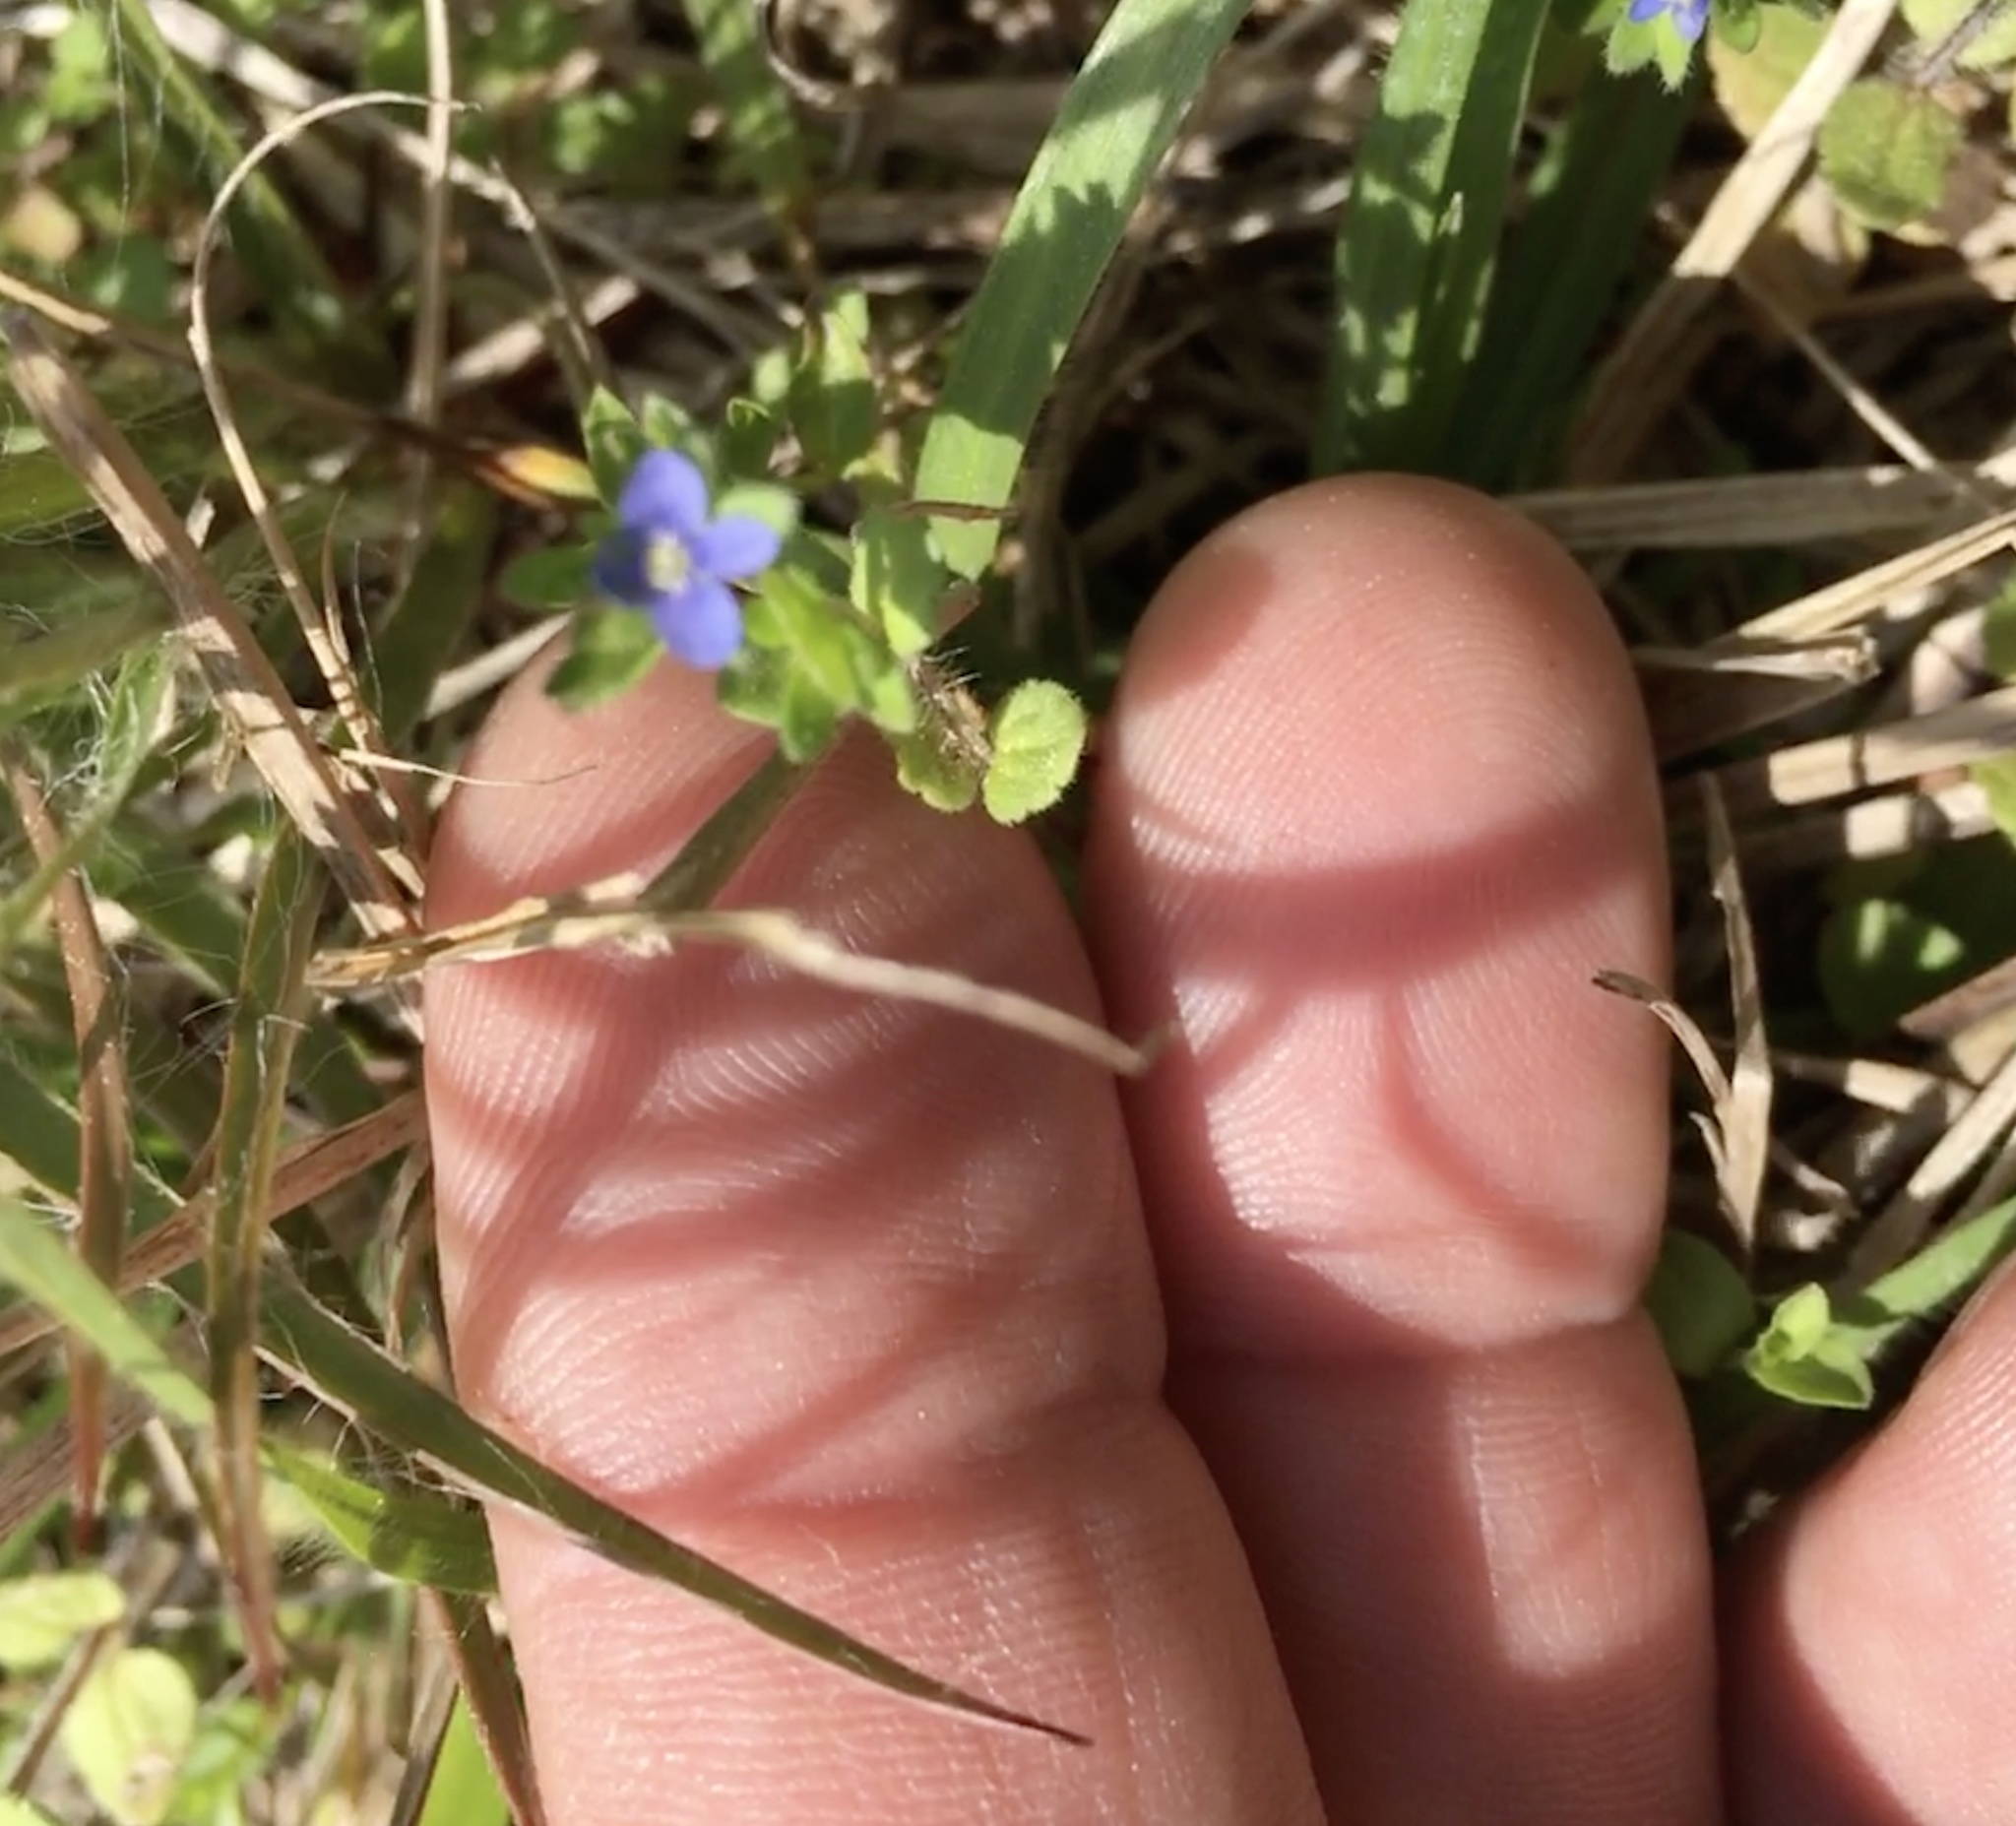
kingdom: Plantae
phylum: Tracheophyta
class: Magnoliopsida
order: Lamiales
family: Plantaginaceae
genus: Veronica
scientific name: Veronica arvensis
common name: Corn speedwell
